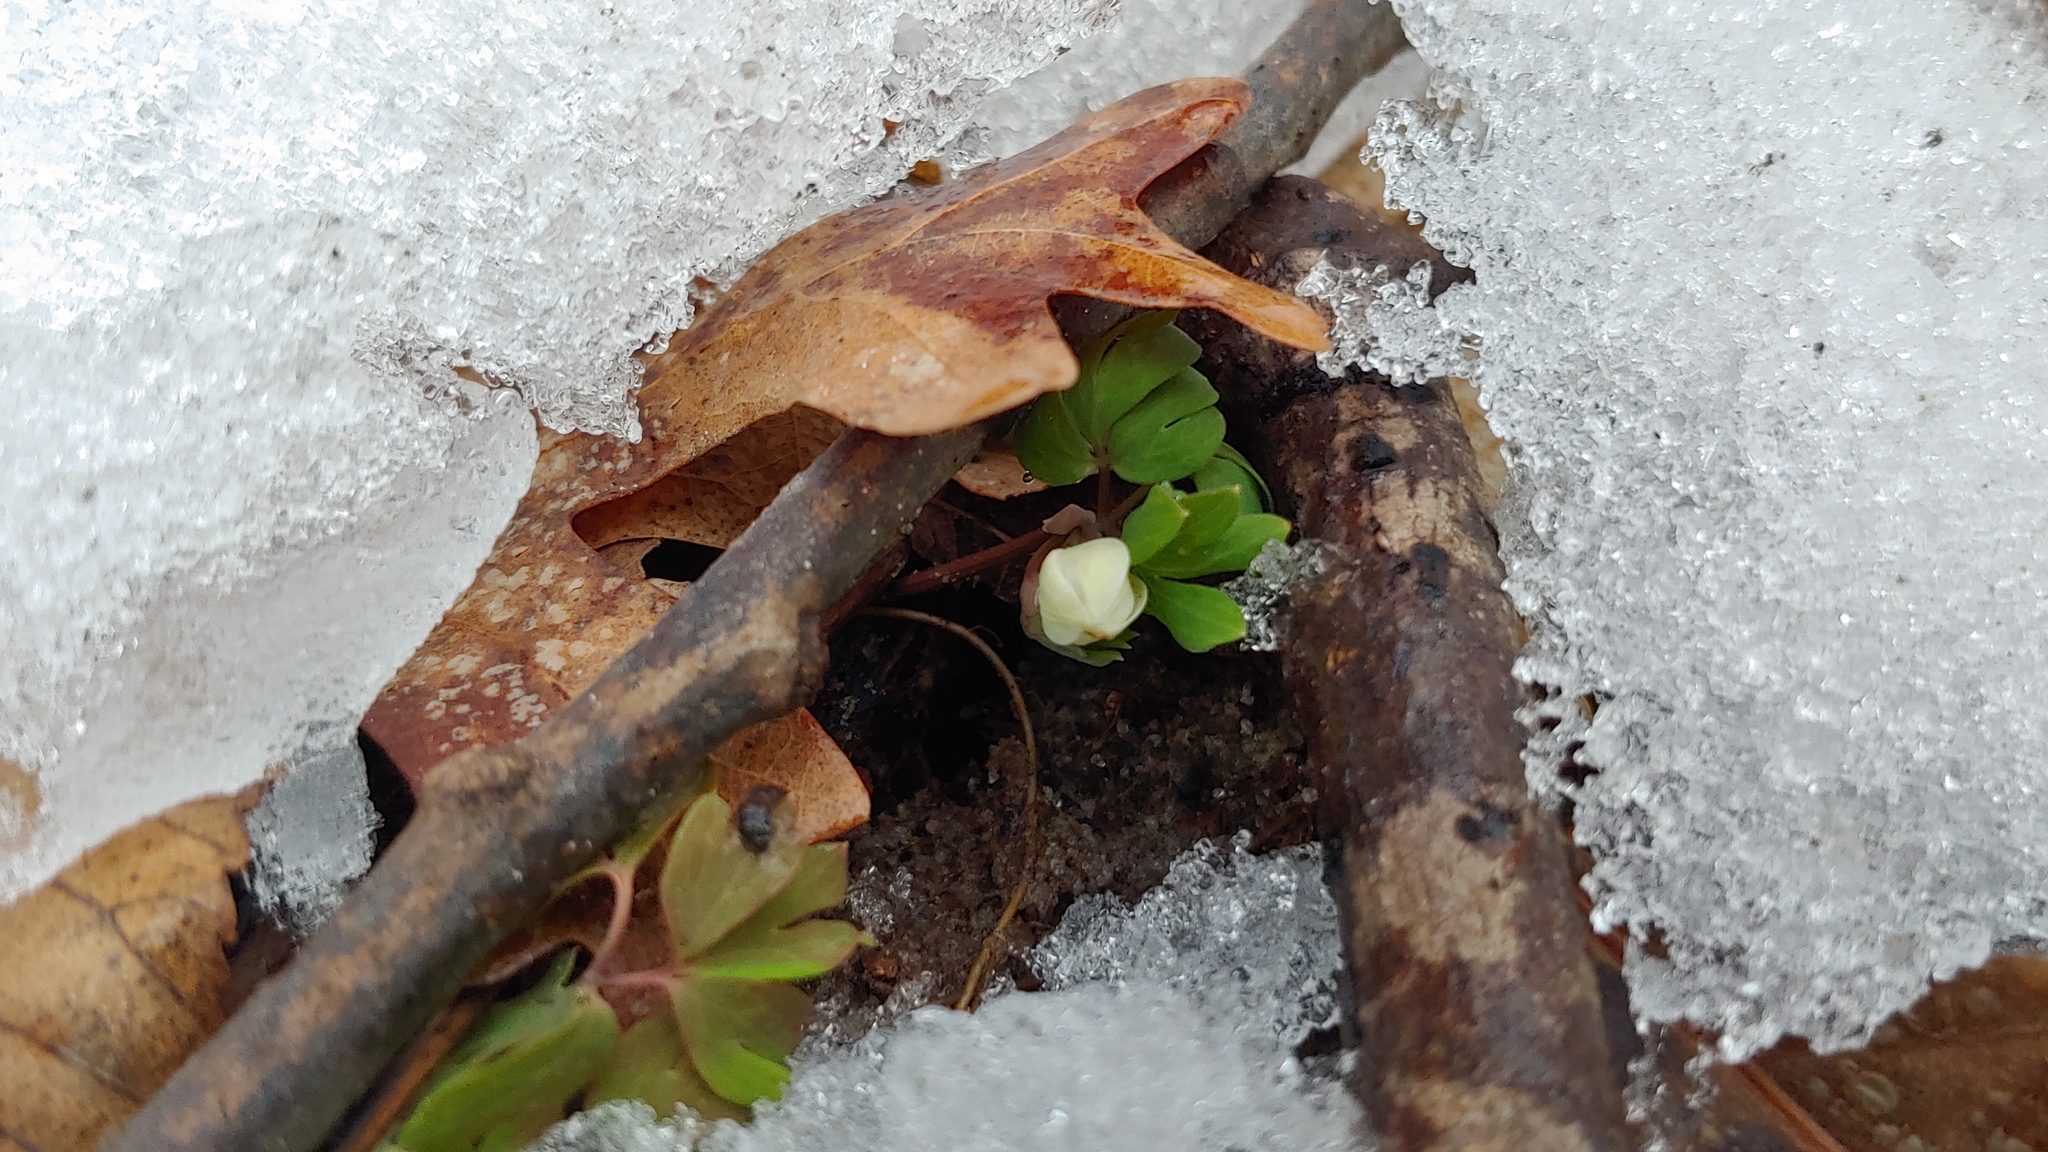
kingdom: Plantae
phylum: Tracheophyta
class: Magnoliopsida
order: Ranunculales
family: Ranunculaceae
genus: Enemion
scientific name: Enemion biternatum
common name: Eastern false rue-anemone
